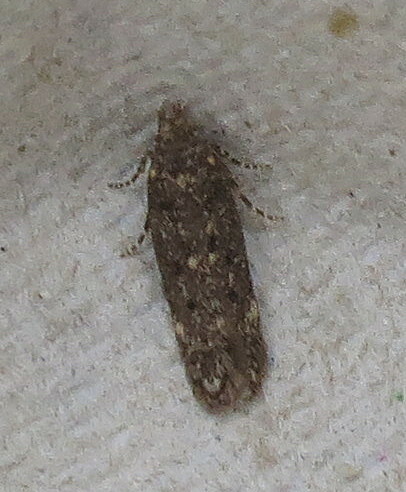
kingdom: Animalia
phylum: Arthropoda
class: Insecta
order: Lepidoptera
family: Gelechiidae
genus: Bryotropha
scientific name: Bryotropha affinis
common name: Dark groundling
